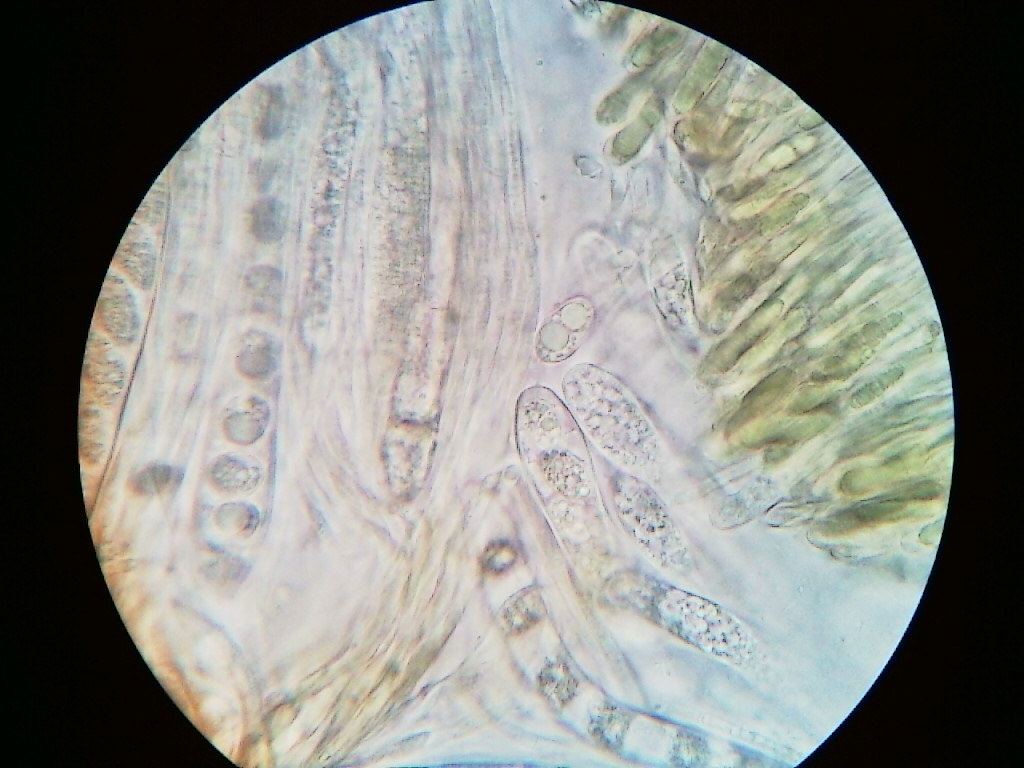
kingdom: Fungi
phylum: Ascomycota
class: Leotiomycetes
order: Helotiales
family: Cenangiaceae
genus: Velutarina
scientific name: Velutarina rufo-olivacea
